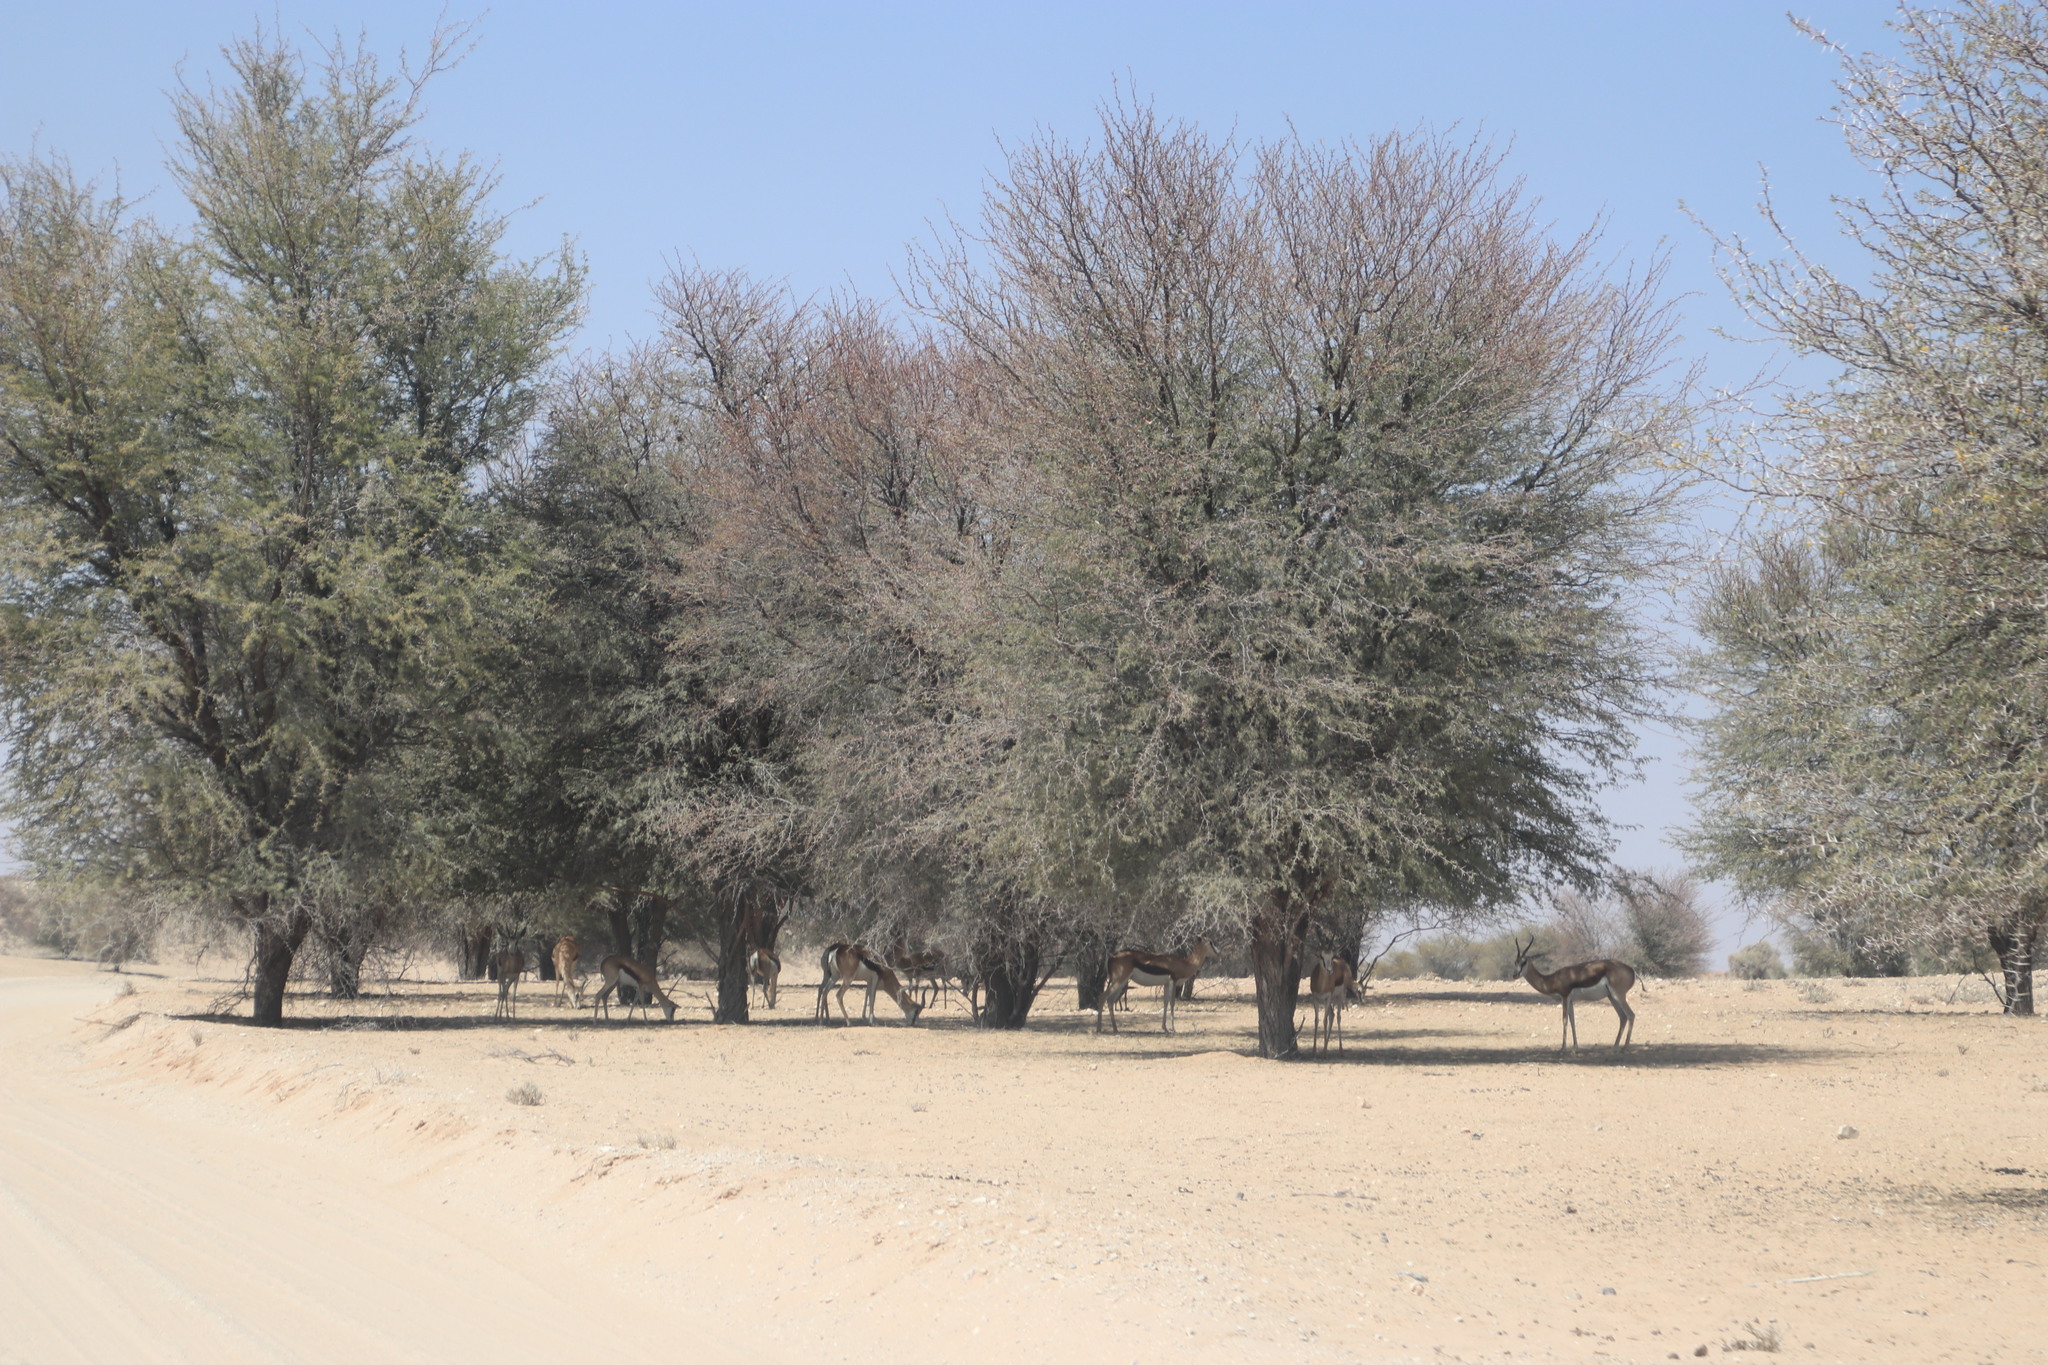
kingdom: Plantae
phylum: Tracheophyta
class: Magnoliopsida
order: Fabales
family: Fabaceae
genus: Vachellia
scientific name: Vachellia haematoxylon
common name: Grey camel thorn
